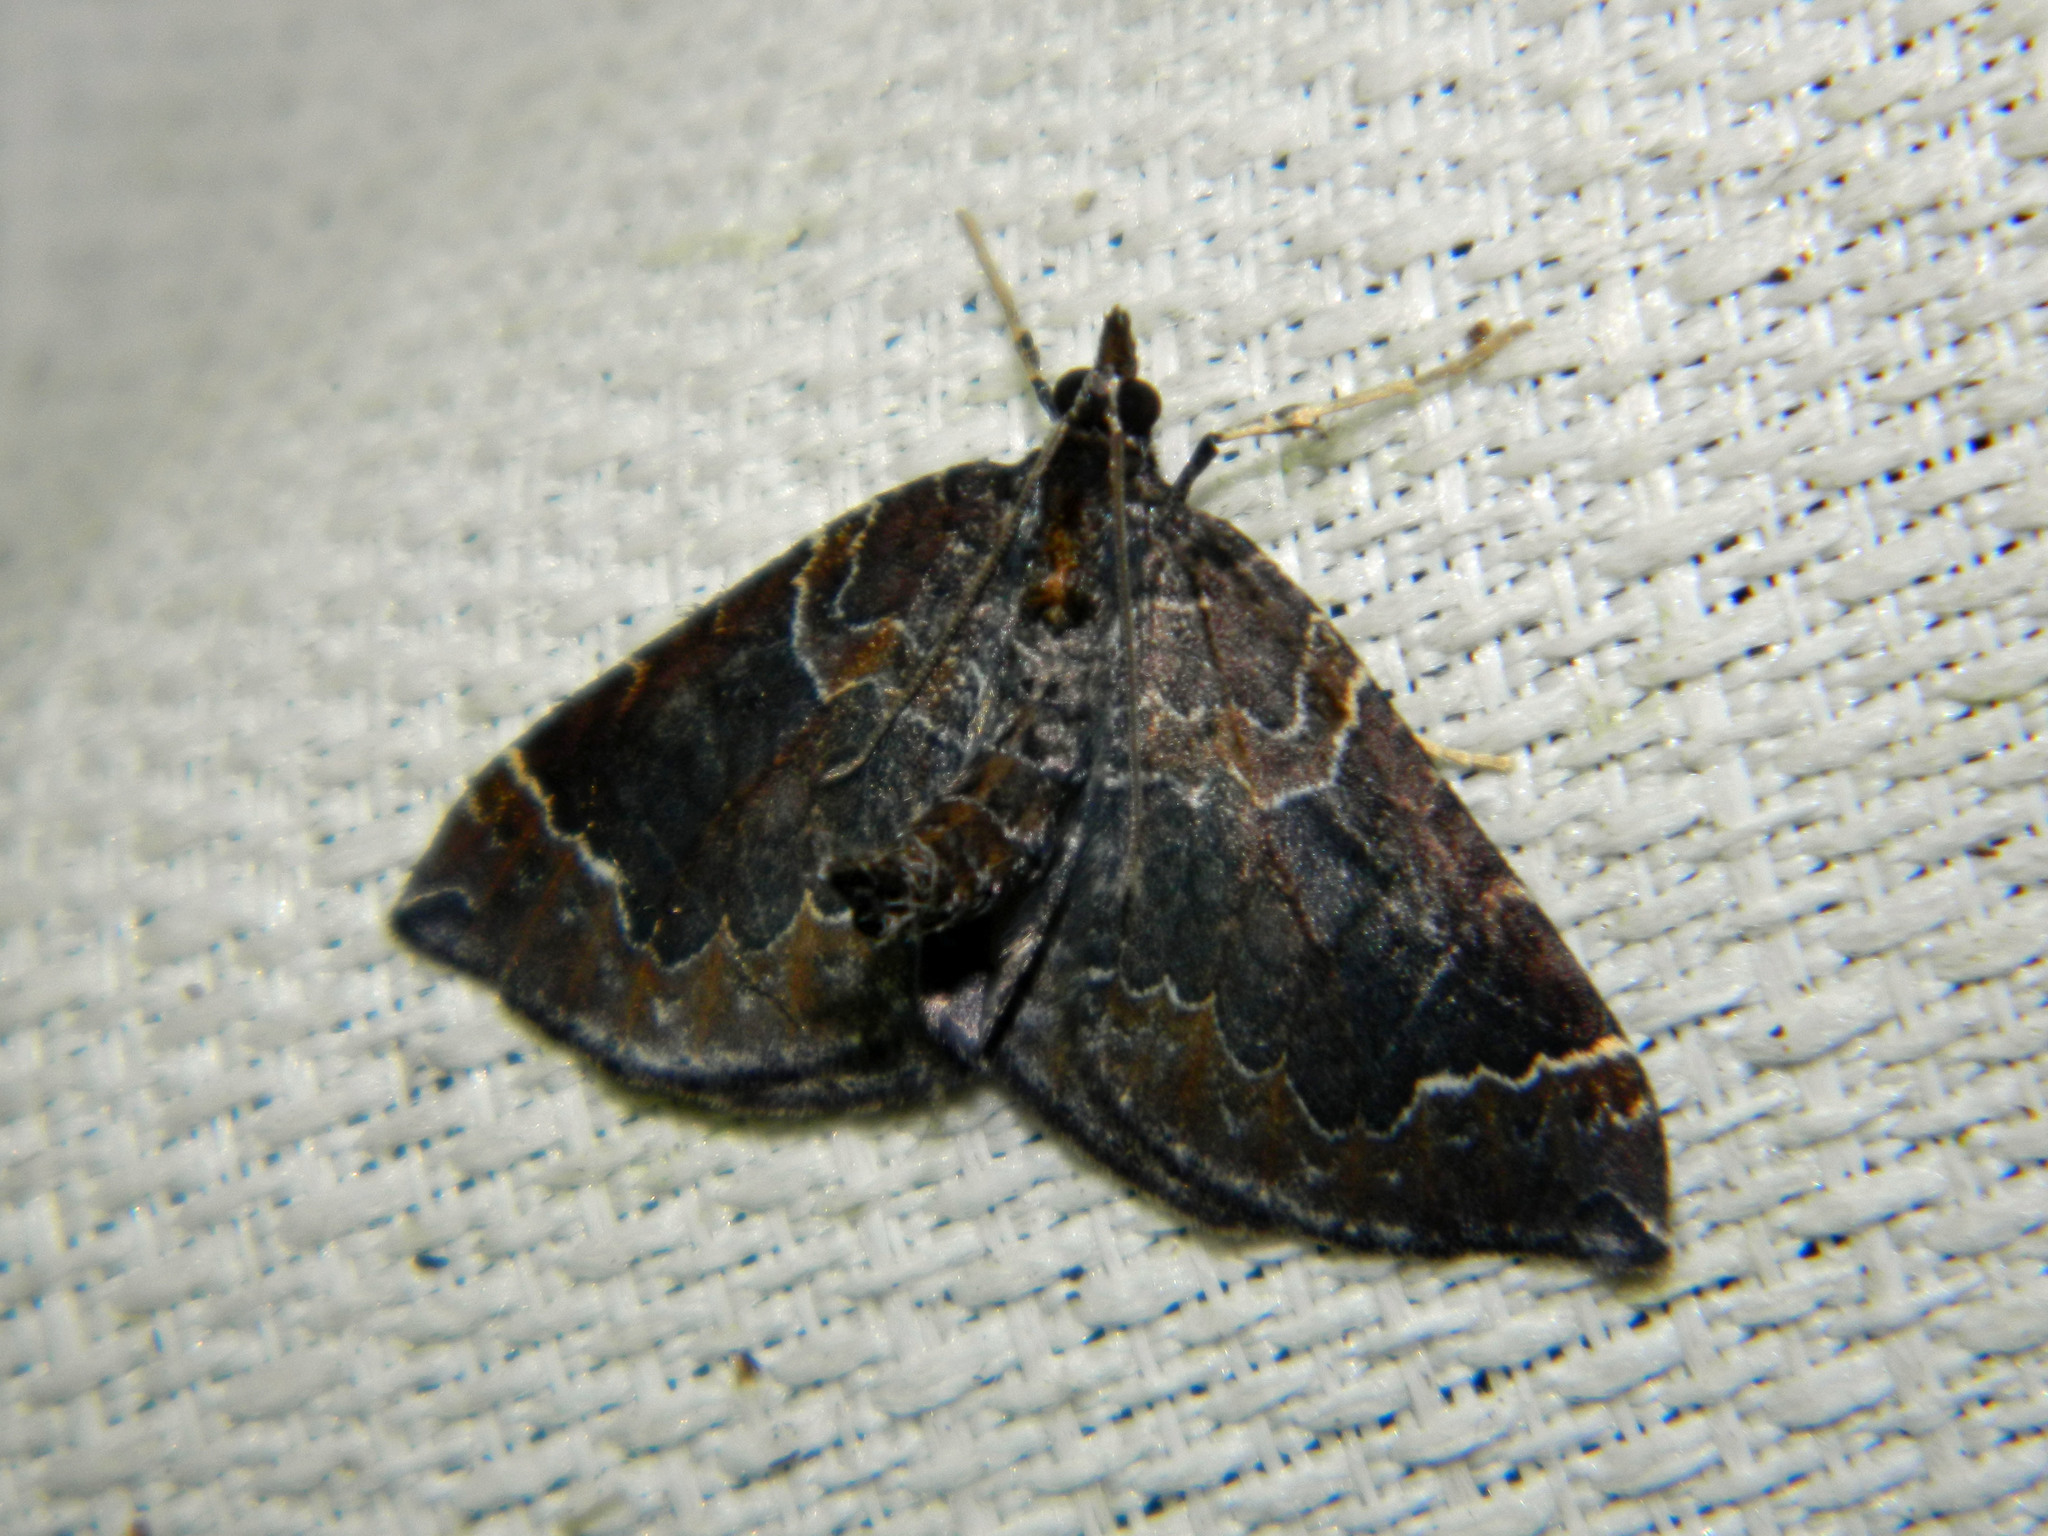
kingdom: Animalia
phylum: Arthropoda
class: Insecta
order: Lepidoptera
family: Geometridae
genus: Eulithis
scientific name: Eulithis flavibrunneata
